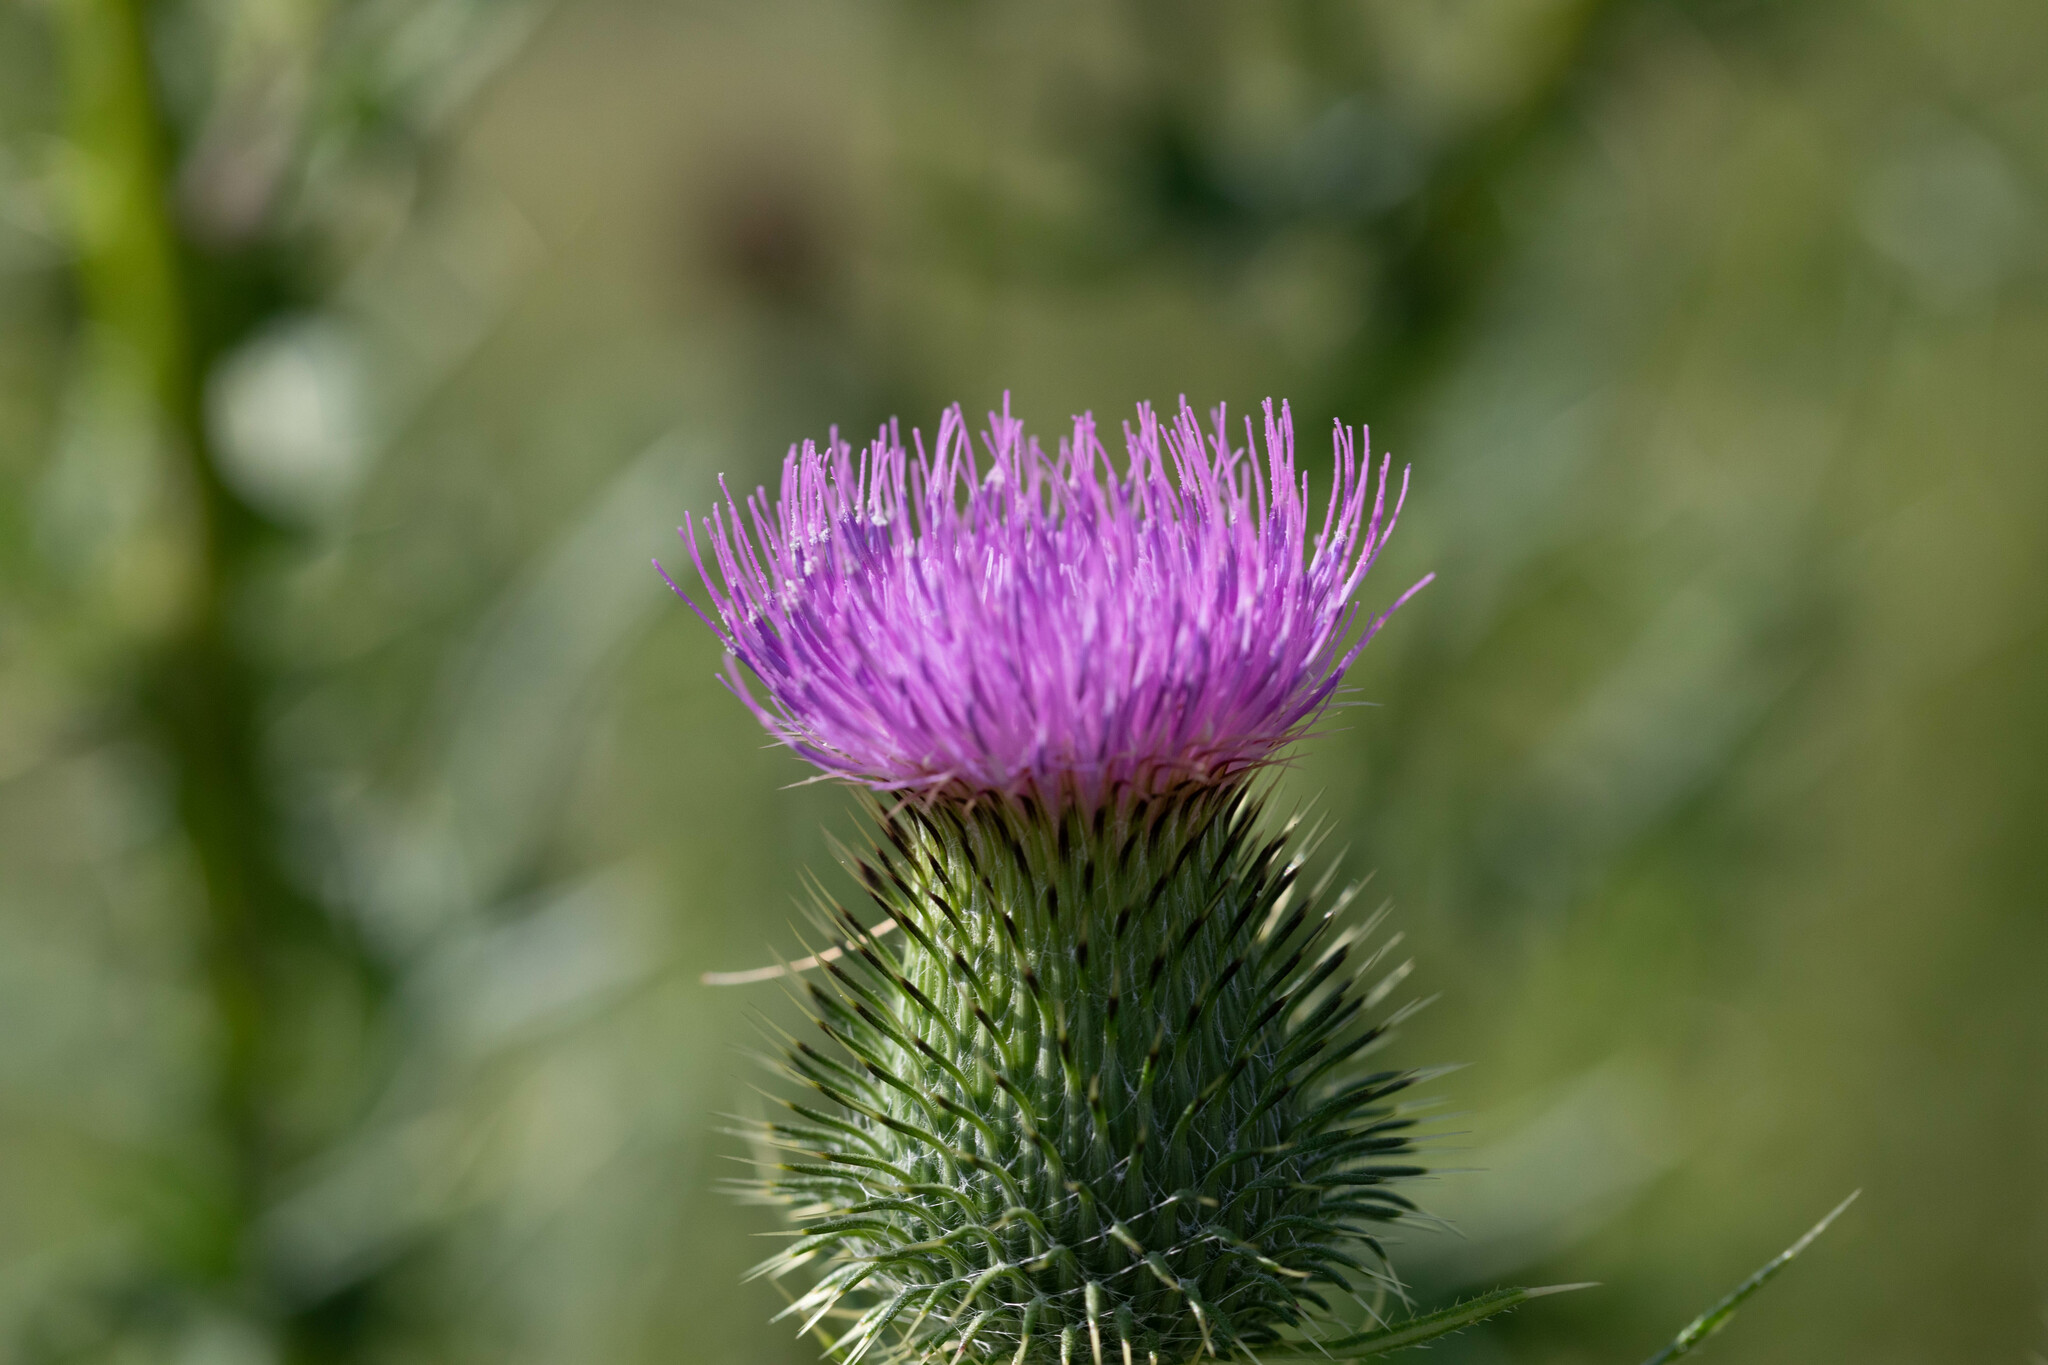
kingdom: Plantae
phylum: Tracheophyta
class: Magnoliopsida
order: Asterales
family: Asteraceae
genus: Cirsium
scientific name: Cirsium vulgare
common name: Bull thistle
